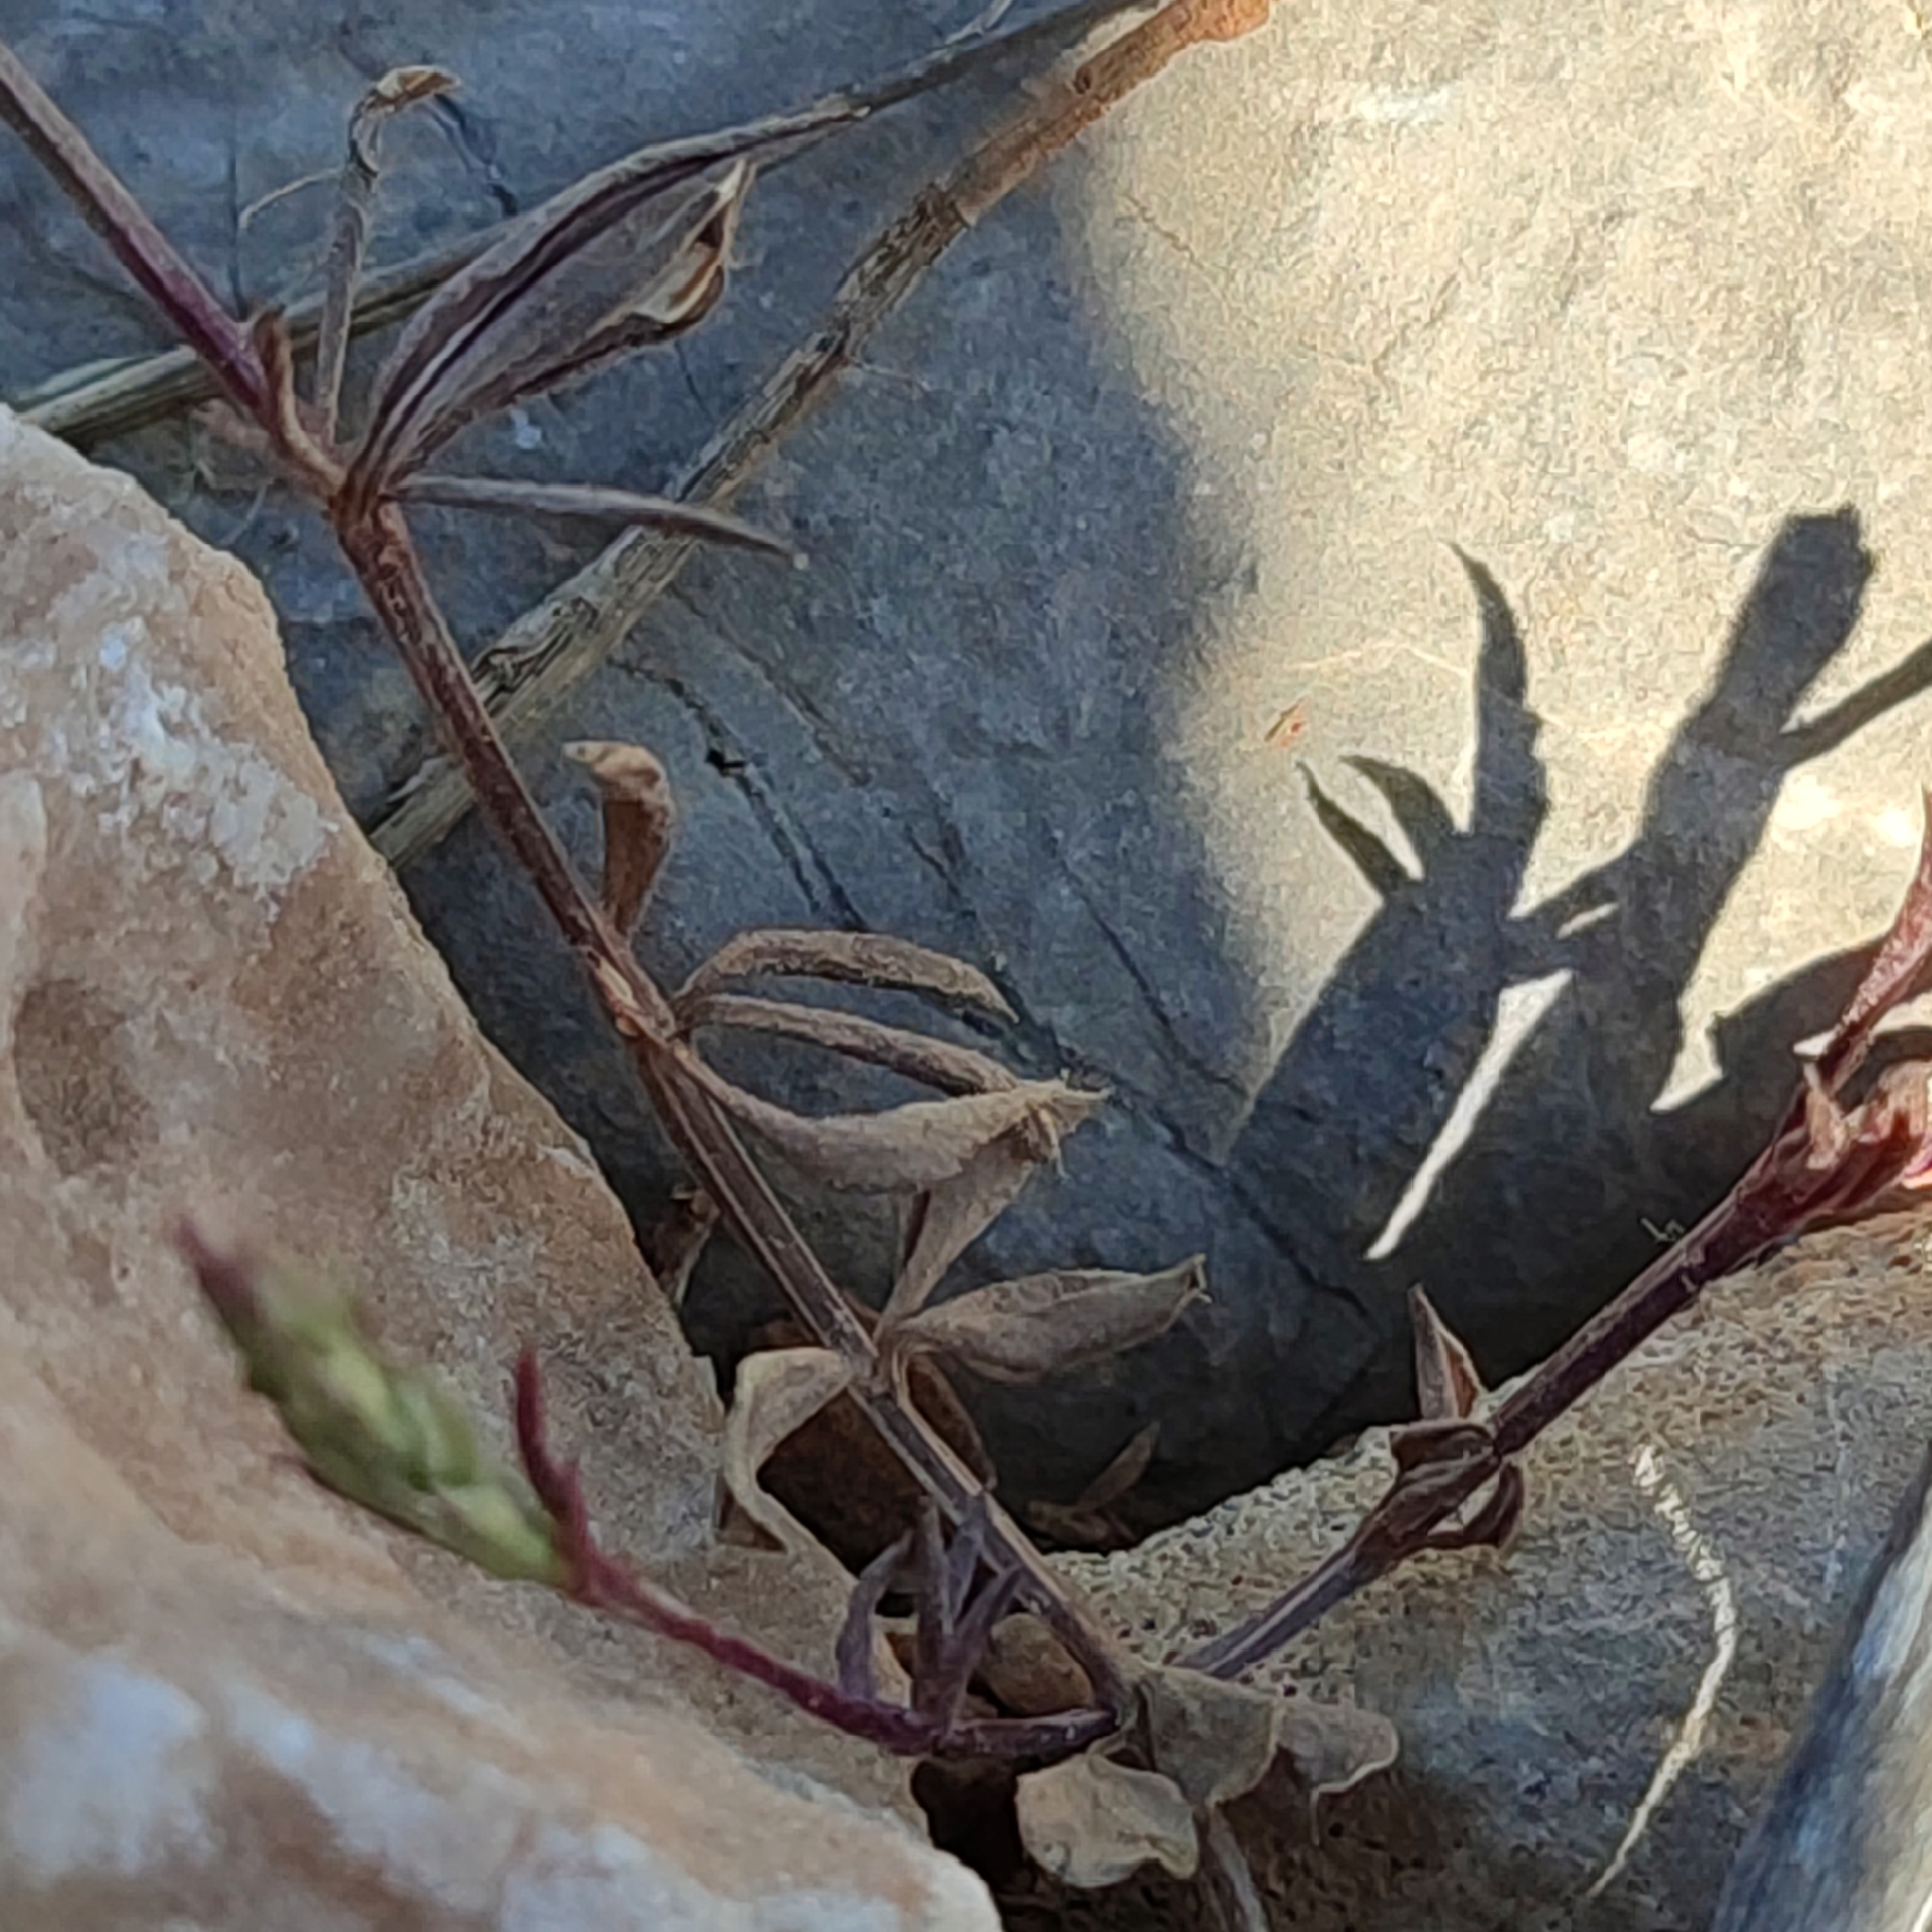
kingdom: Plantae
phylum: Tracheophyta
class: Magnoliopsida
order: Gentianales
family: Rubiaceae
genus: Crucianella
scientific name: Crucianella latifolia
